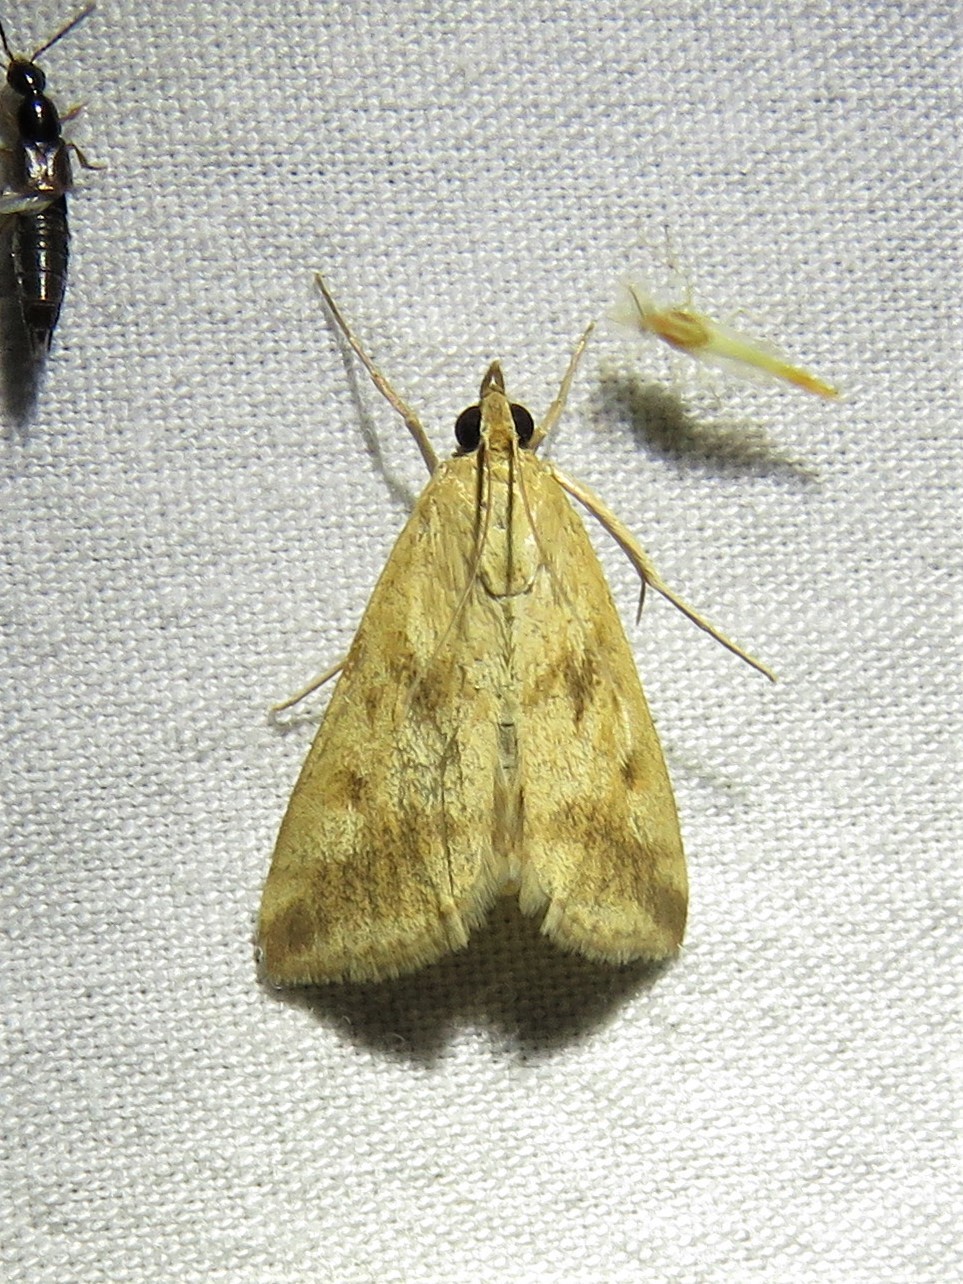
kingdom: Animalia
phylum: Arthropoda
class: Insecta
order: Lepidoptera
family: Crambidae
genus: Achyra
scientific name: Achyra bifidalis
